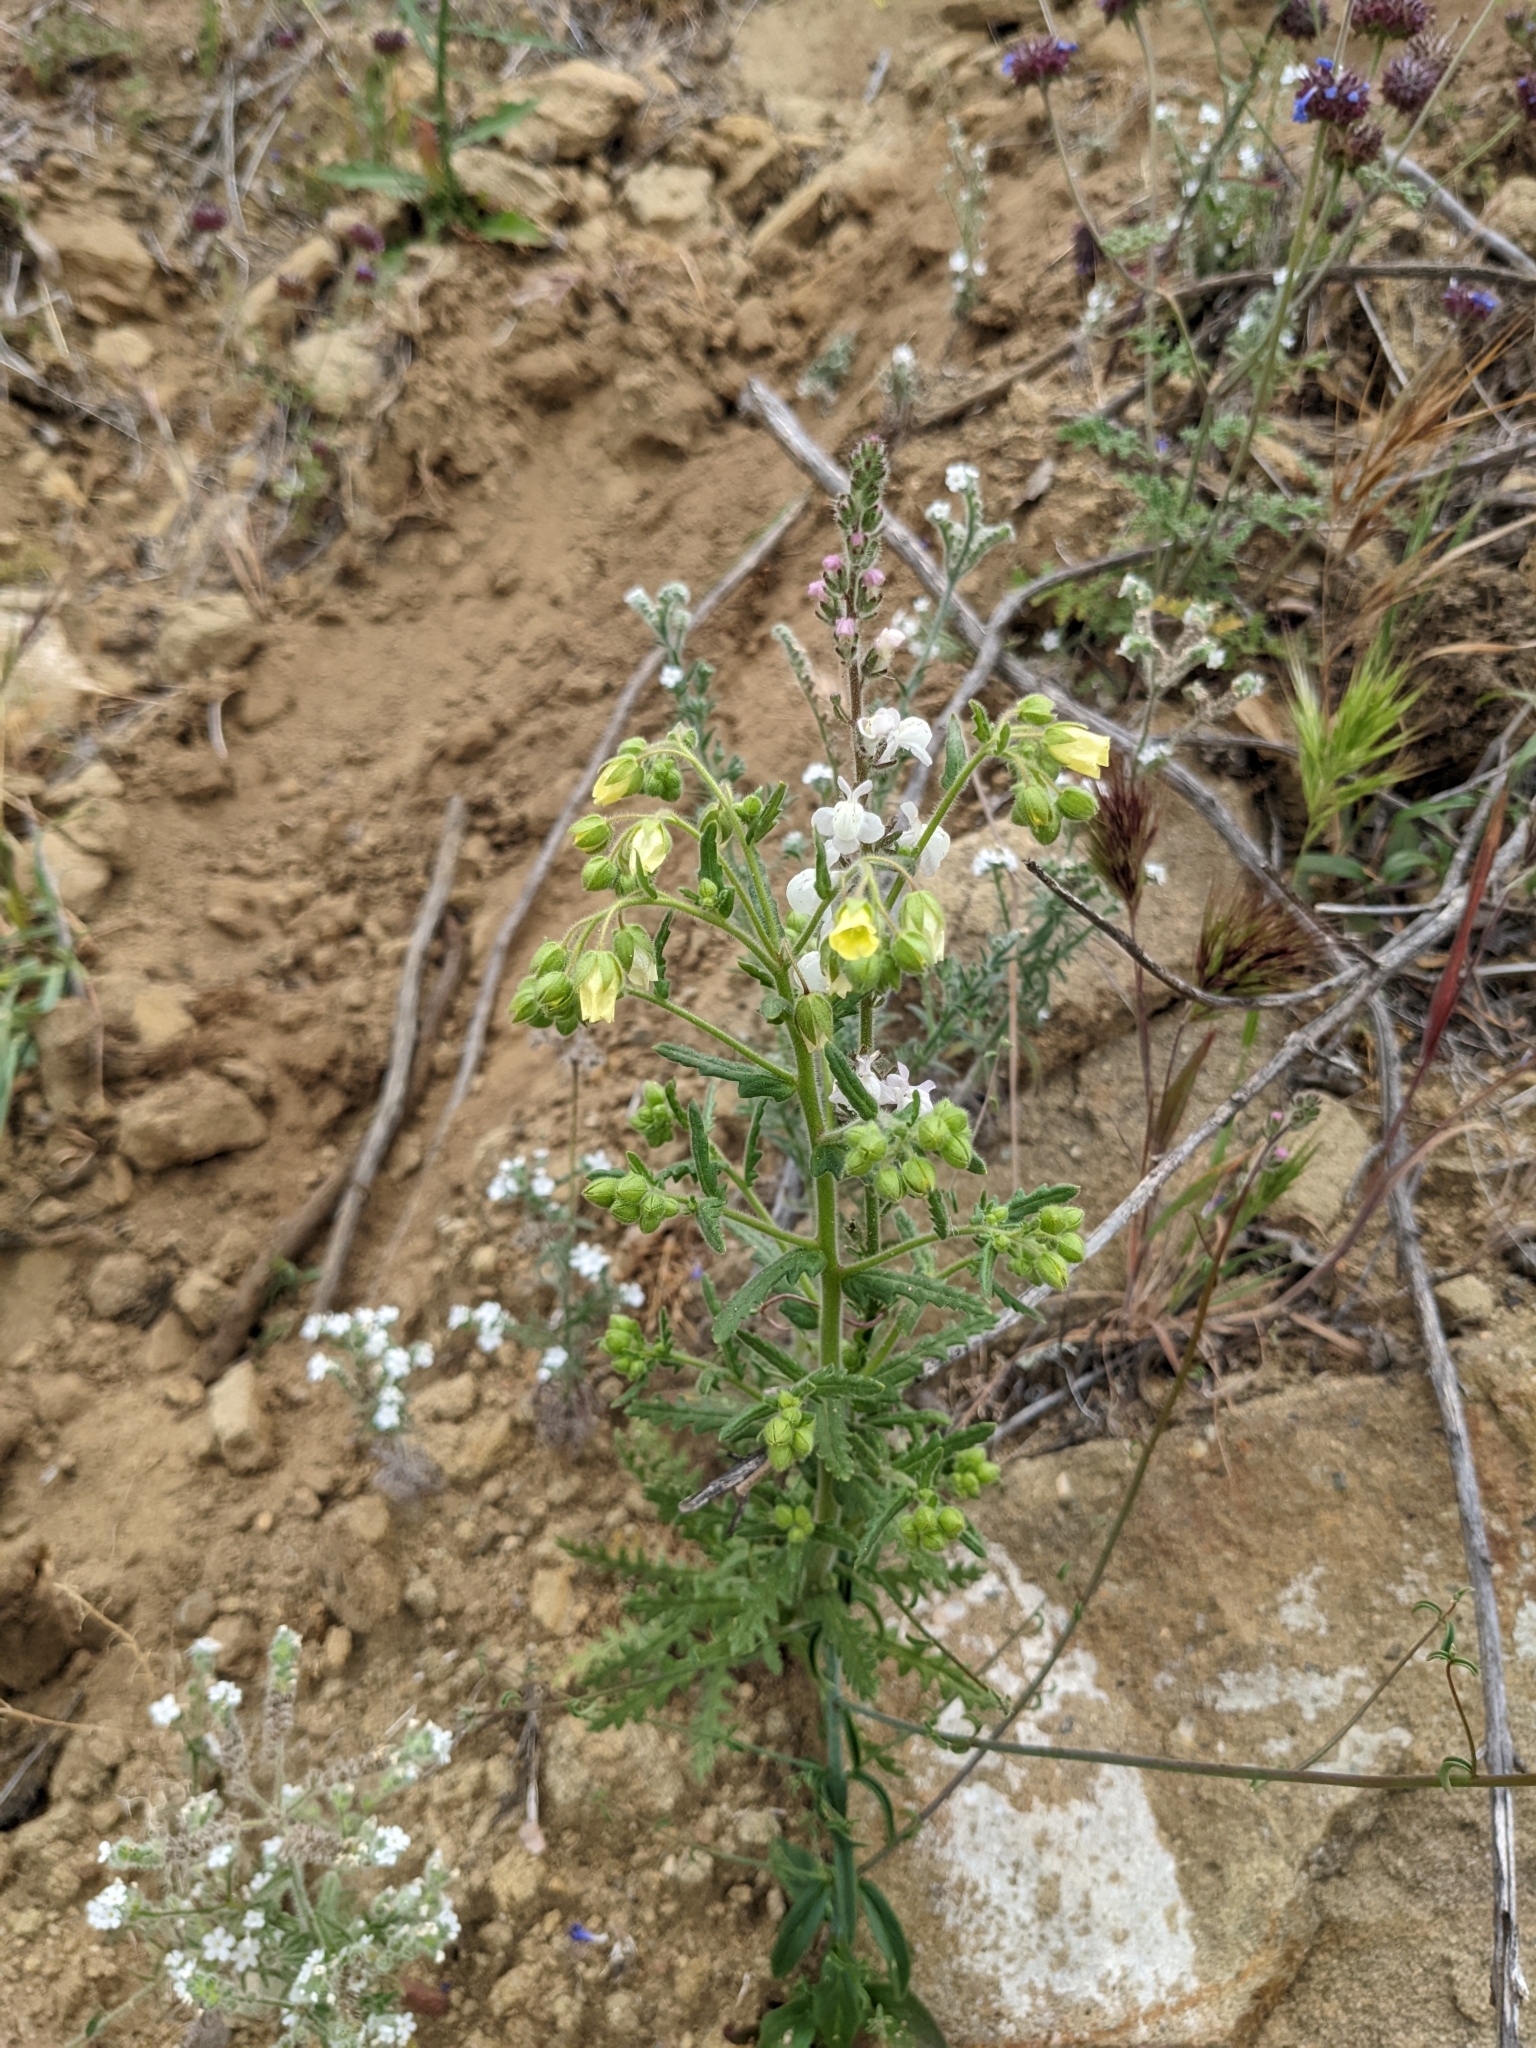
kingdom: Plantae
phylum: Tracheophyta
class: Magnoliopsida
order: Boraginales
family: Hydrophyllaceae
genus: Emmenanthe
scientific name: Emmenanthe penduliflora
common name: Whispering-bells
